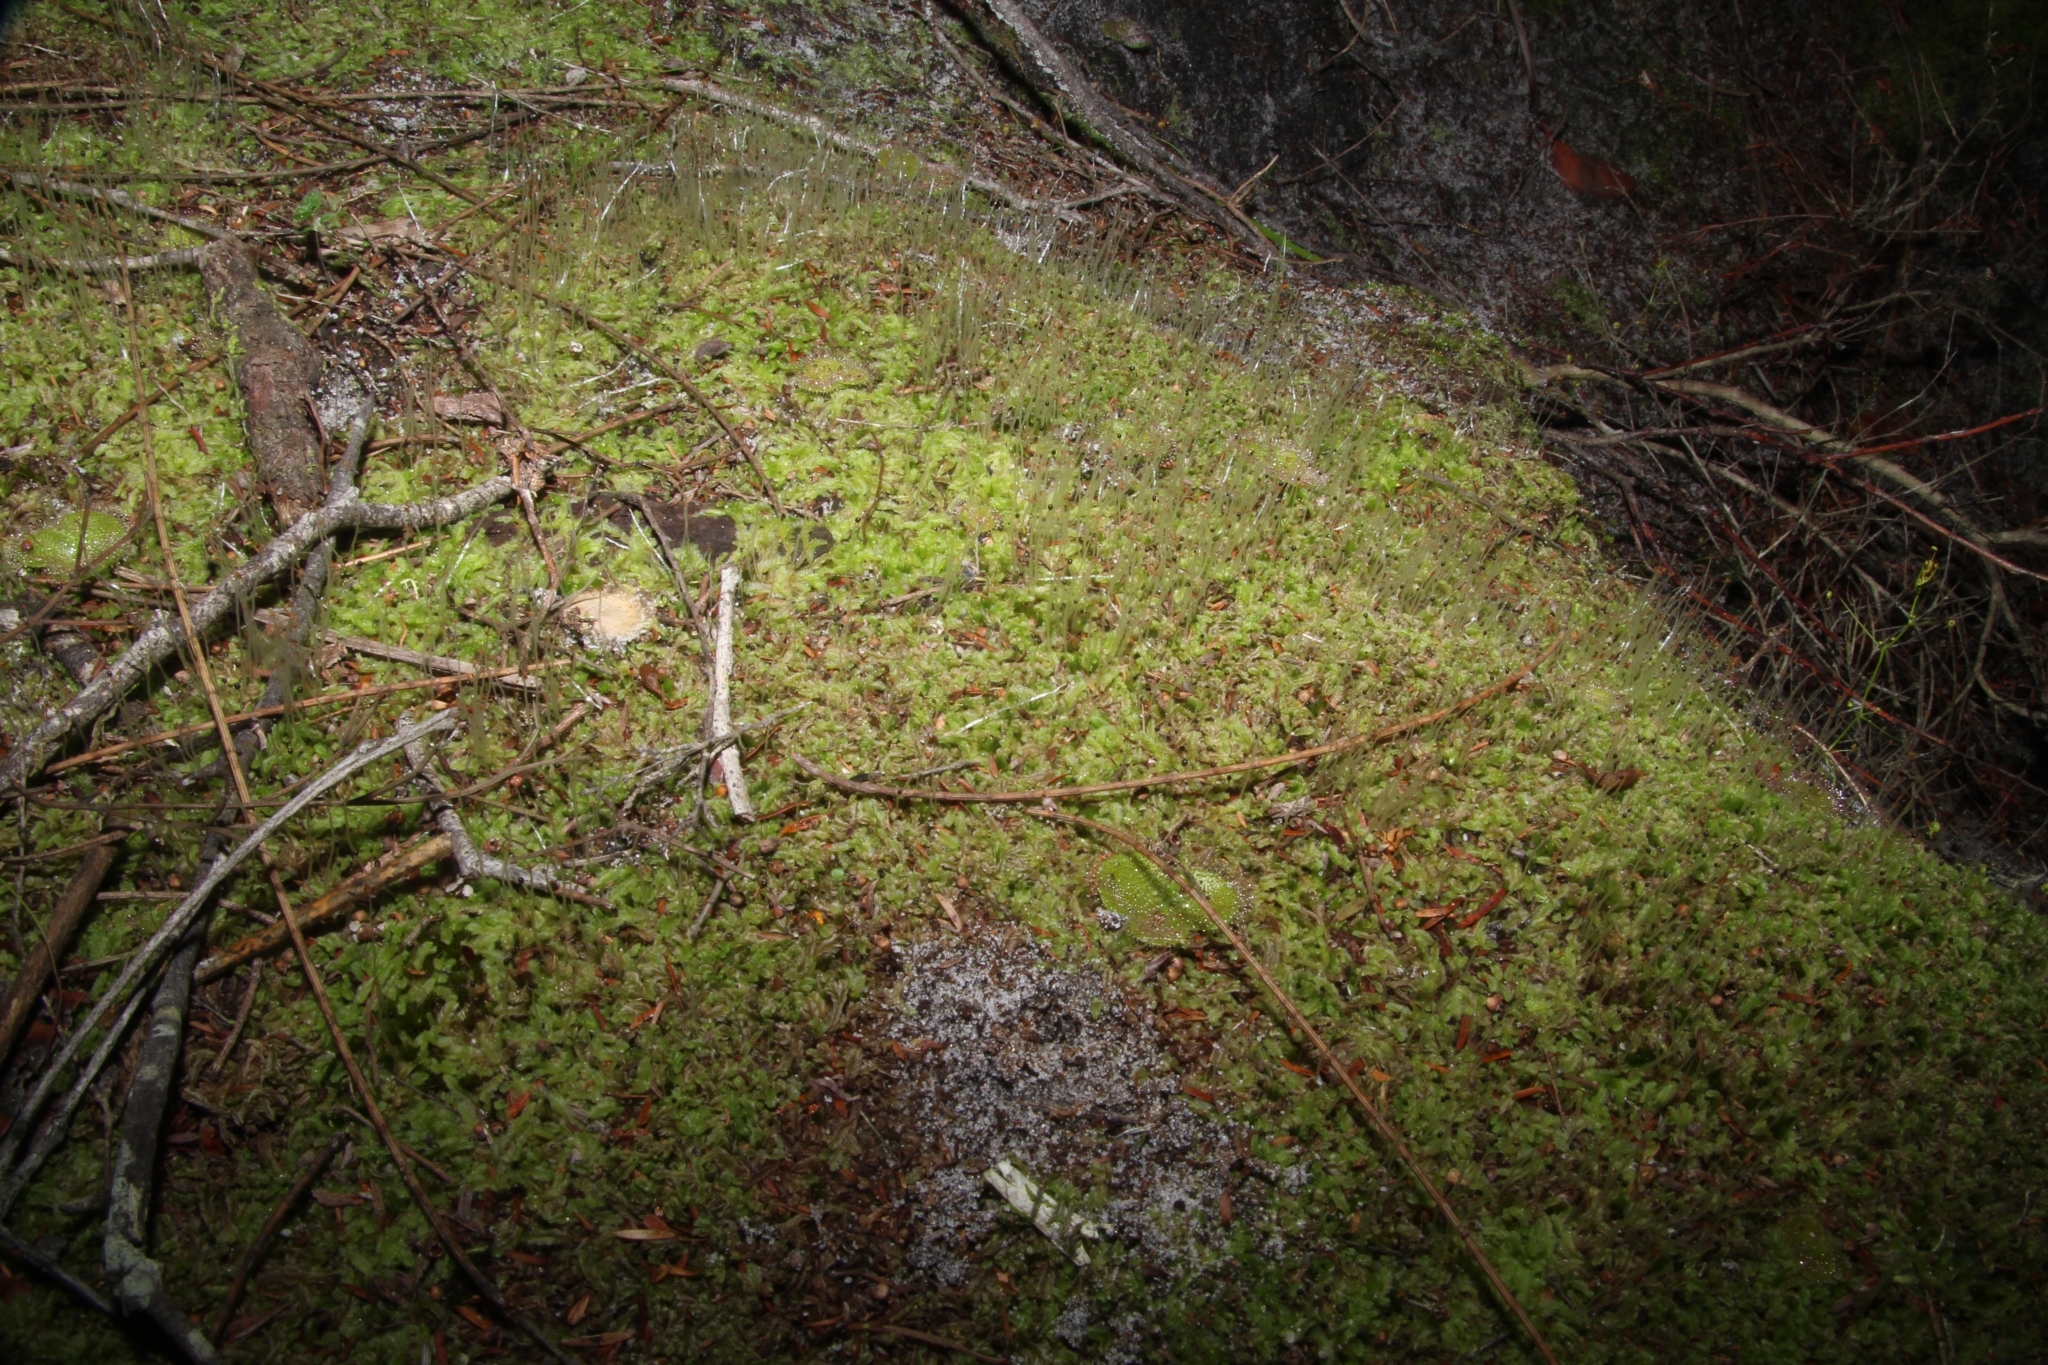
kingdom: Plantae
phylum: Marchantiophyta
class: Jungermanniopsida
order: Jungermanniales
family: Lophocoleaceae
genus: Lophocolea
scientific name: Lophocolea semiteres
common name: Southern crestwort
